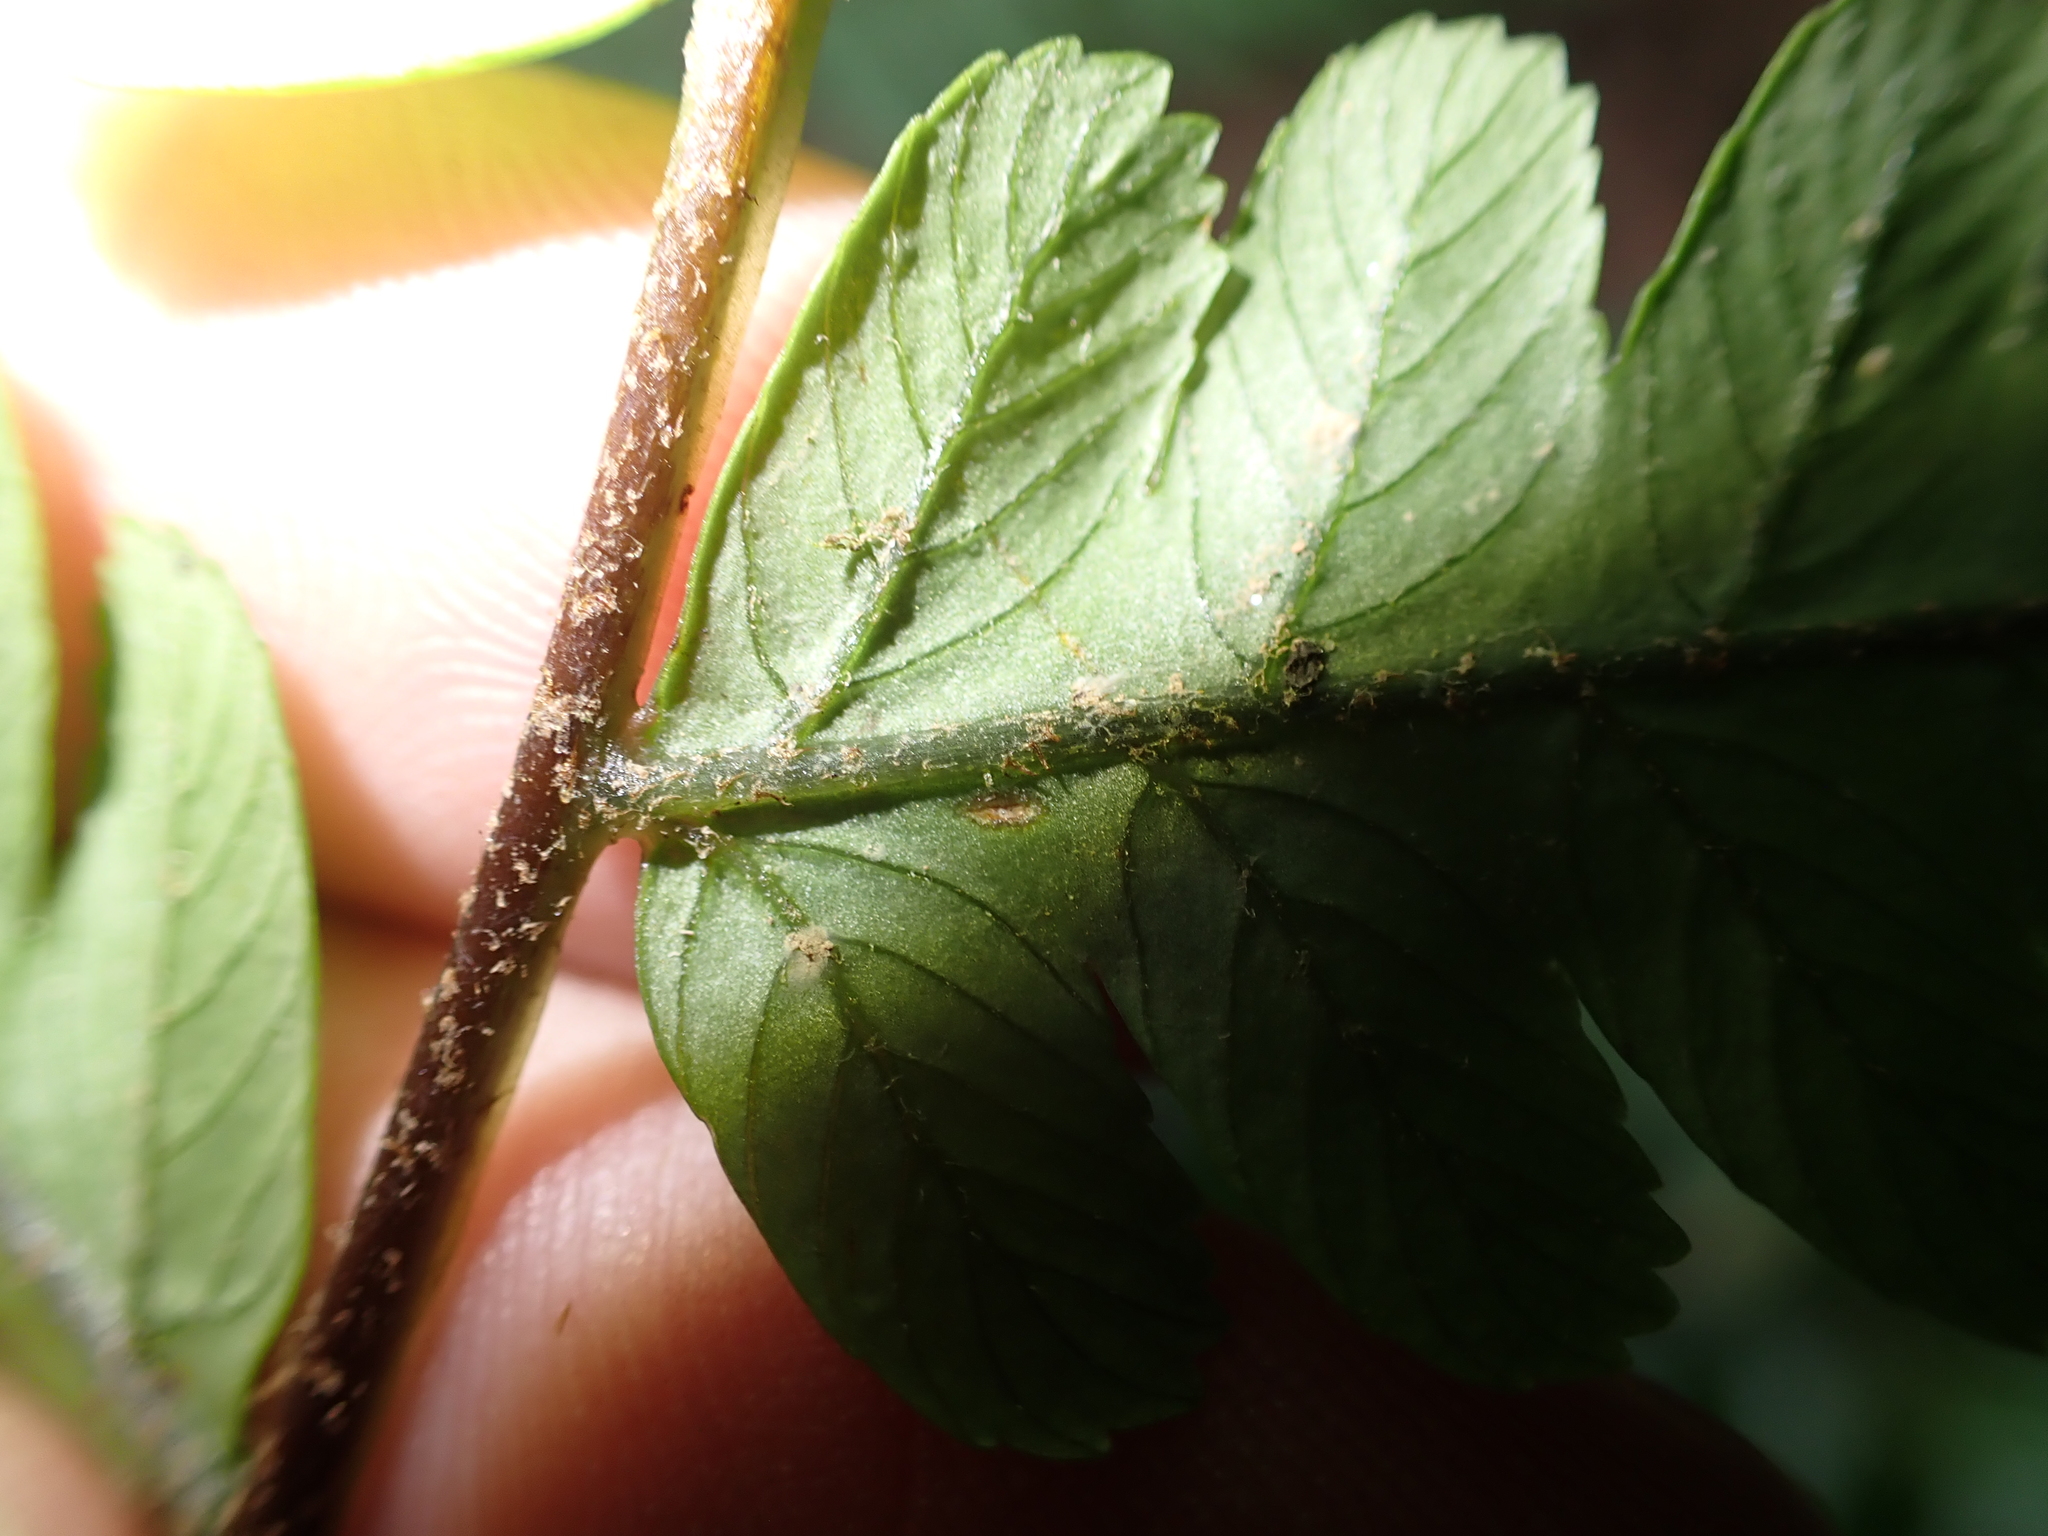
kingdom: Plantae
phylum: Tracheophyta
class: Polypodiopsida
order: Cyatheales
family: Cyatheaceae
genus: Gymnosphaera
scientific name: Gymnosphaera metteniana
